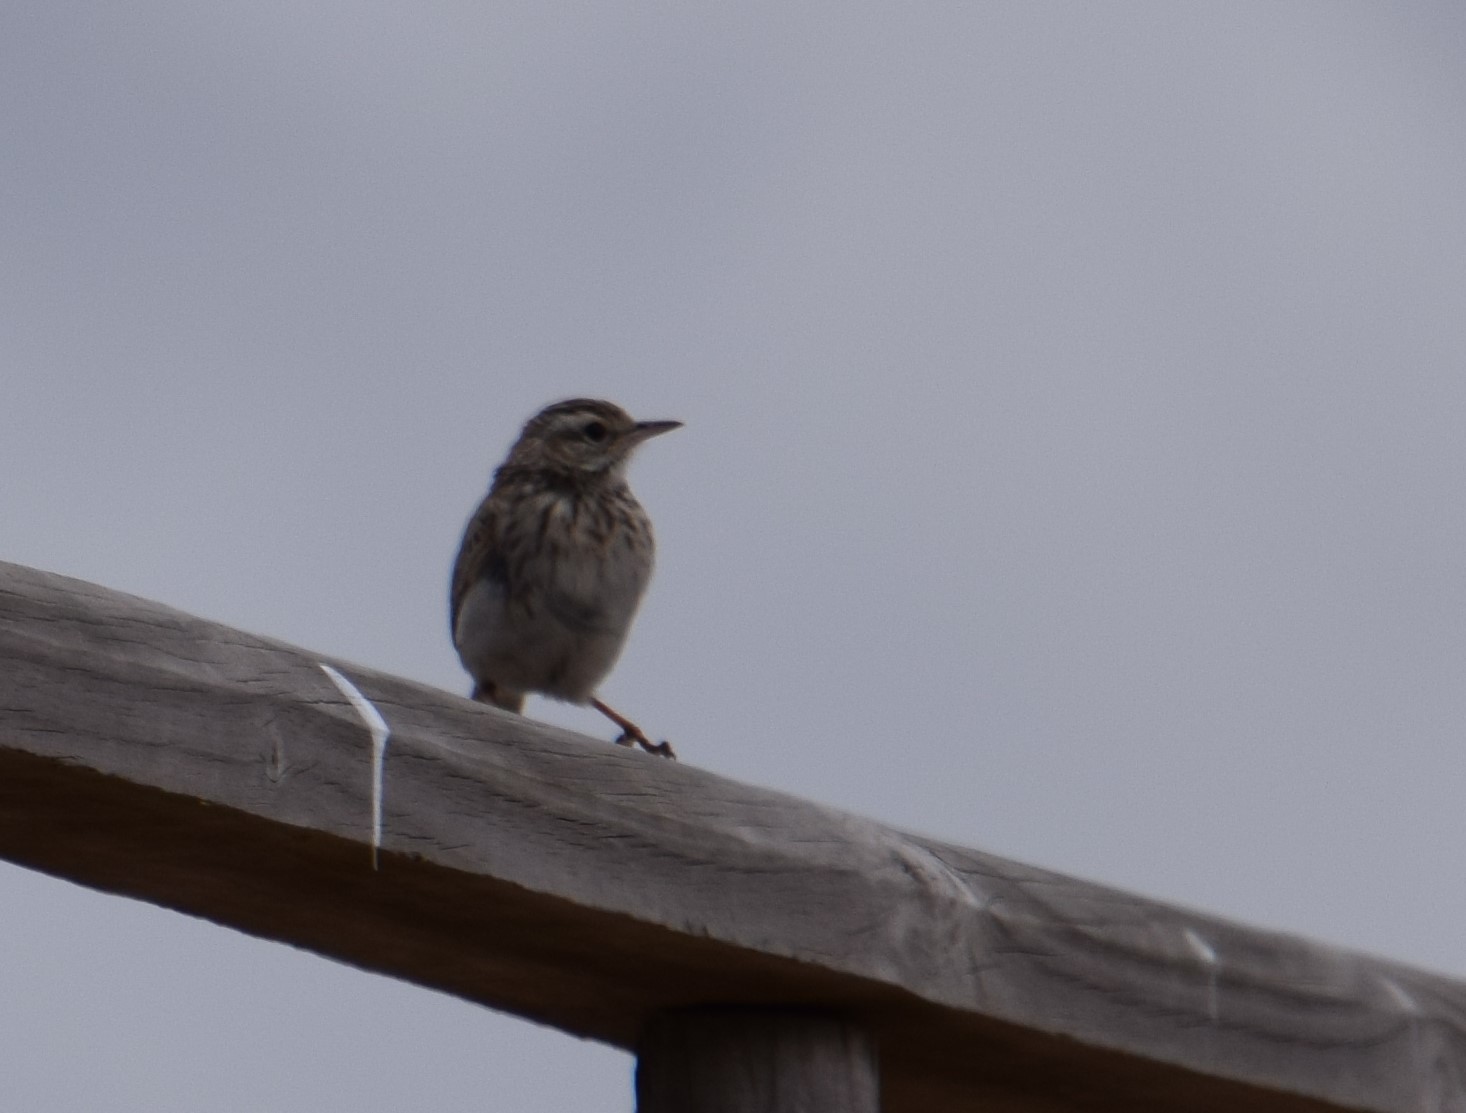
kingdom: Animalia
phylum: Chordata
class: Aves
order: Passeriformes
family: Motacillidae
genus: Anthus
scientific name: Anthus australis
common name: Australian pipit
